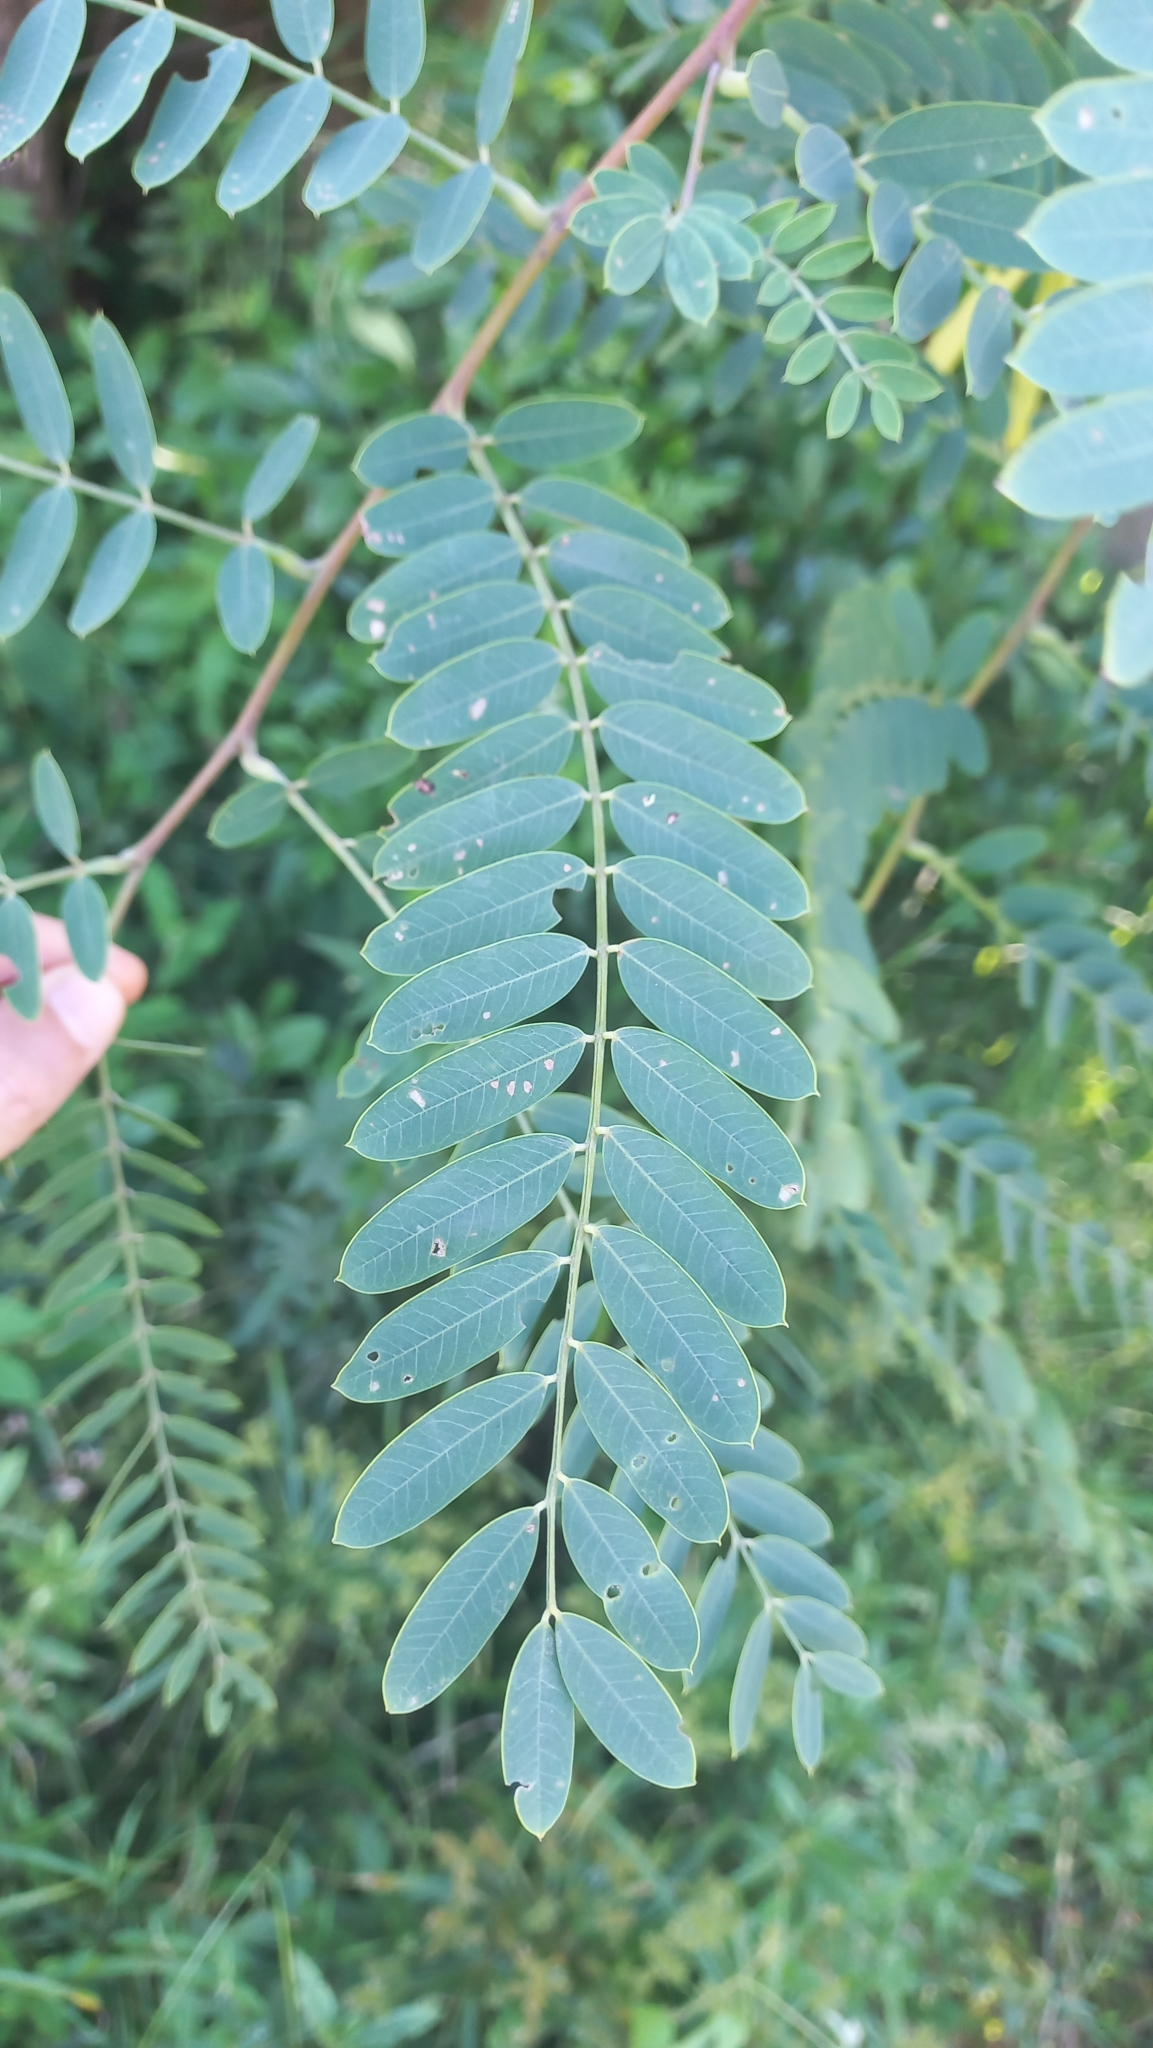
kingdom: Plantae
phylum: Tracheophyta
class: Magnoliopsida
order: Fabales
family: Fabaceae
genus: Sesbania
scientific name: Sesbania virgata
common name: Wand riverhemp
